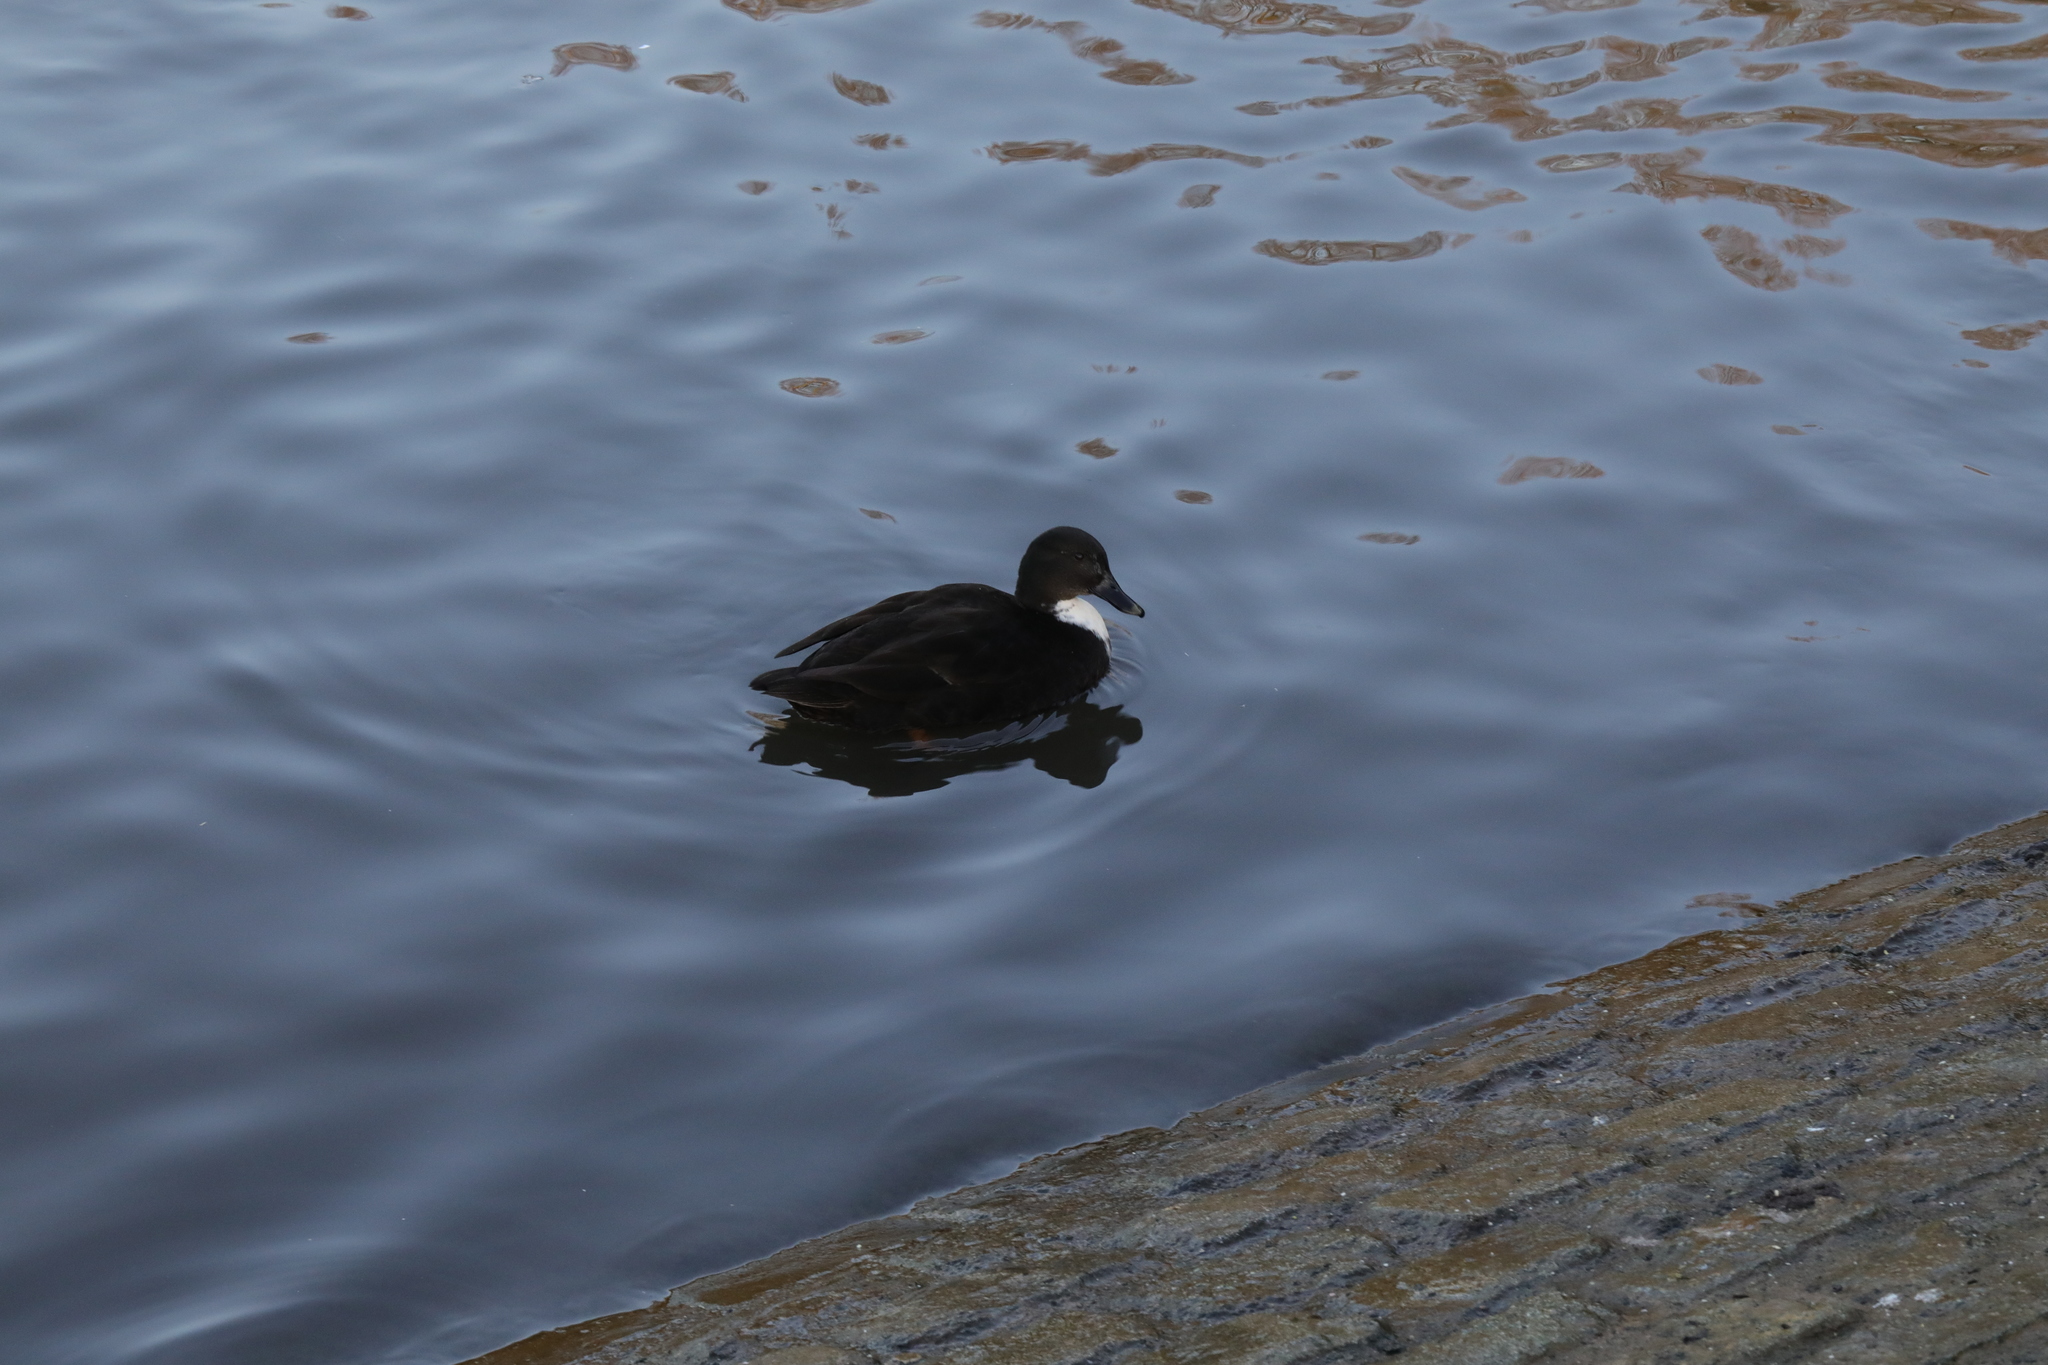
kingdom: Animalia
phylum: Chordata
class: Aves
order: Anseriformes
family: Anatidae
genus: Anas
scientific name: Anas platyrhynchos
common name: Mallard
